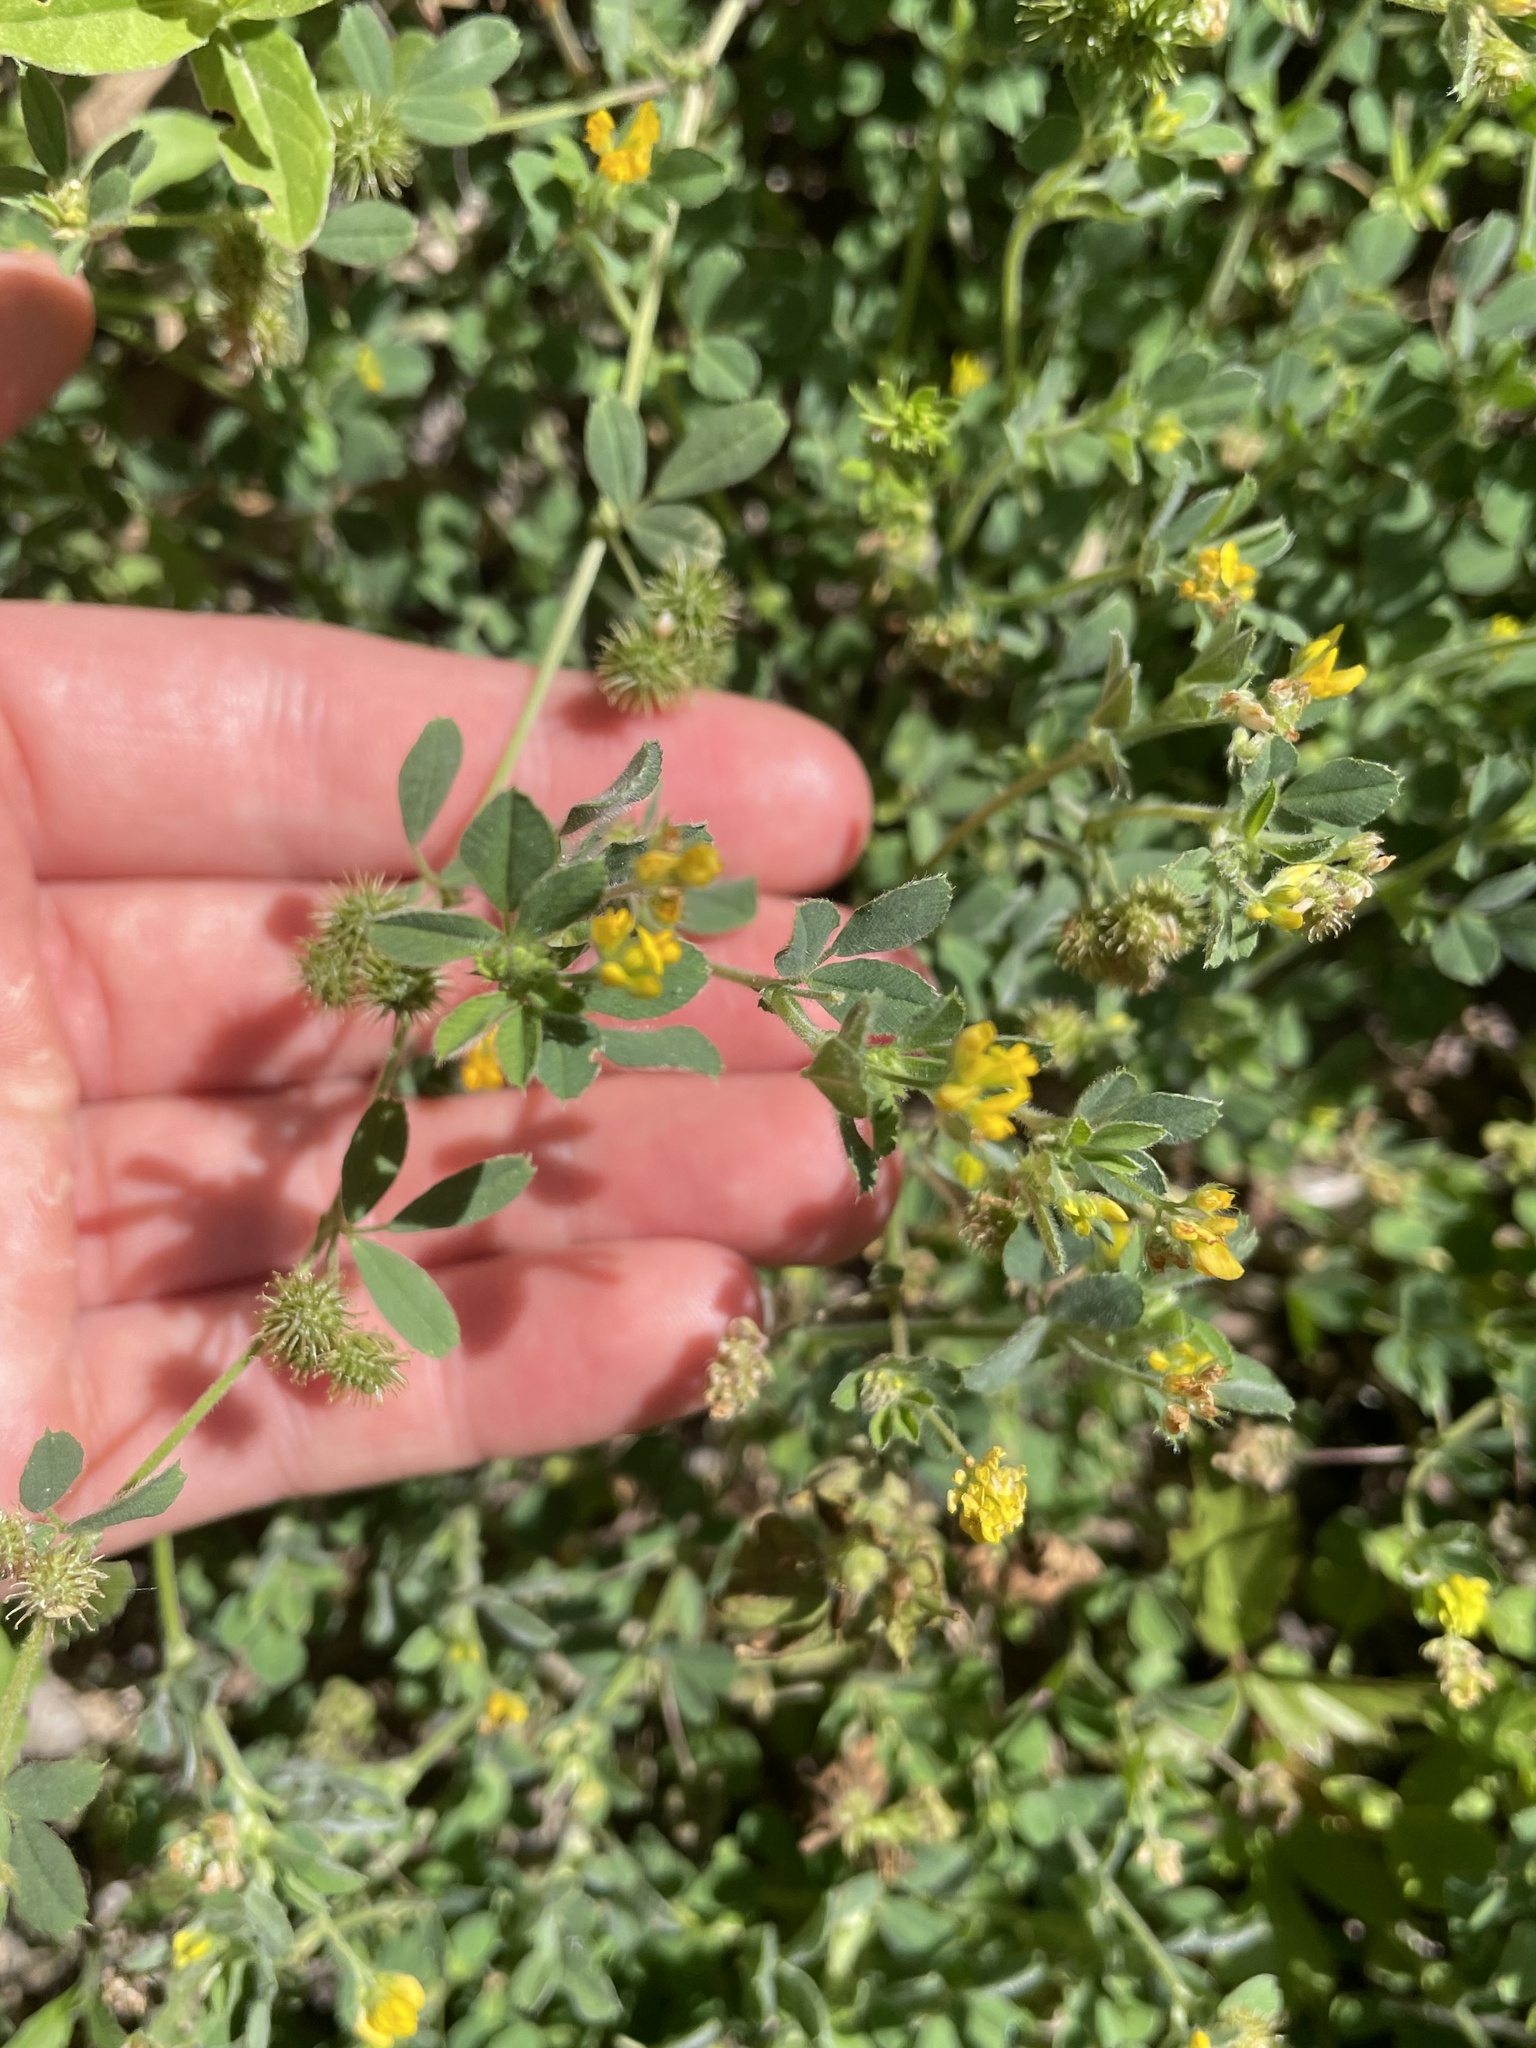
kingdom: Plantae
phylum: Tracheophyta
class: Magnoliopsida
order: Fabales
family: Fabaceae
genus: Medicago
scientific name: Medicago minima
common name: Little bur-clover
